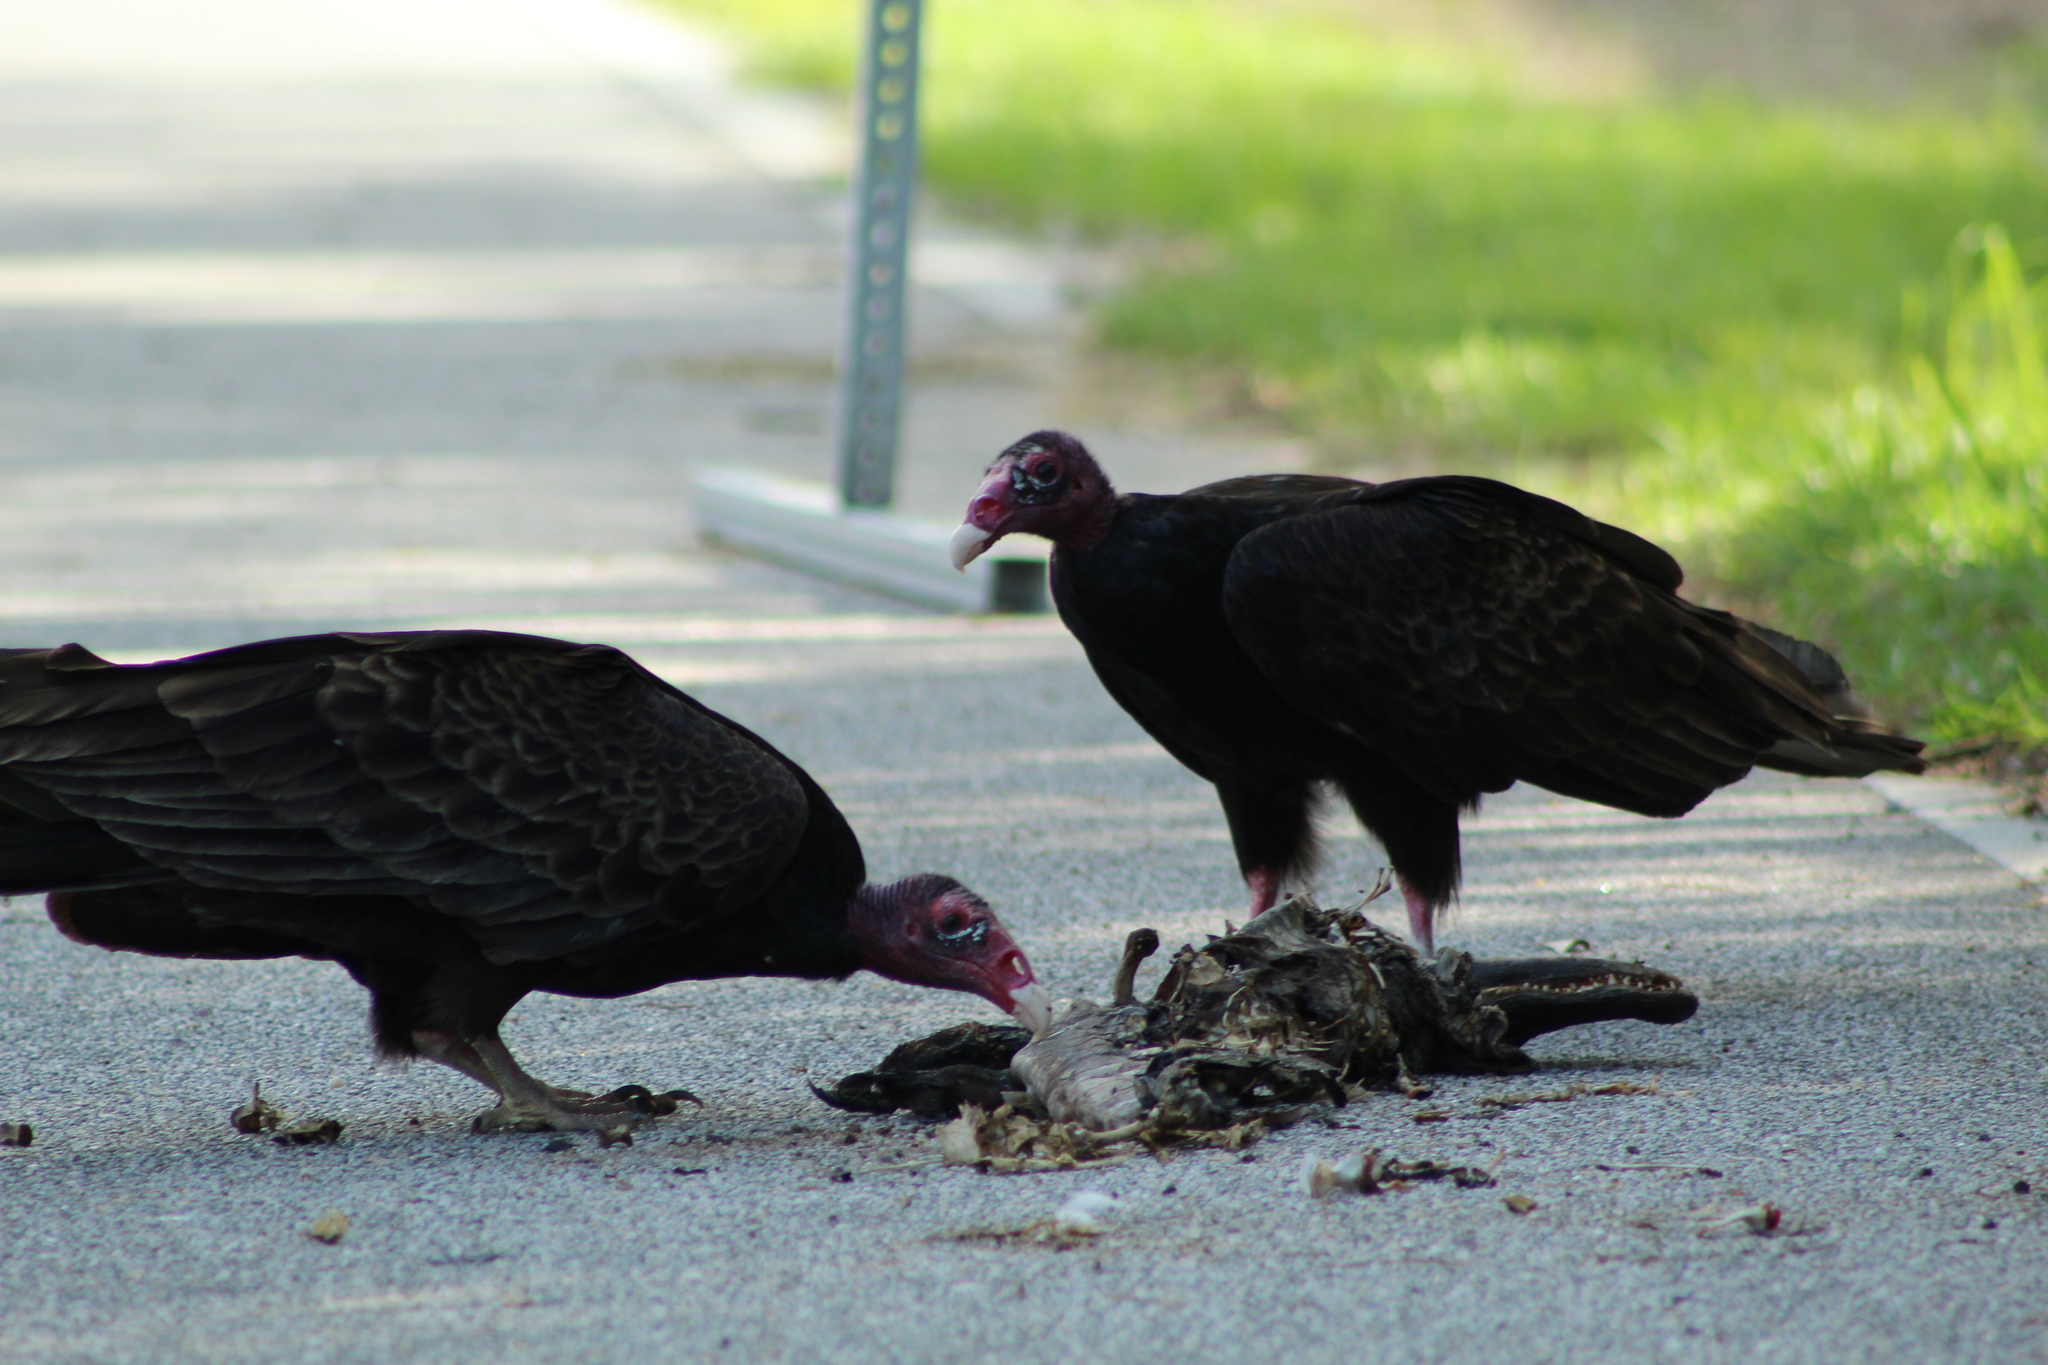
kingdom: Animalia
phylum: Chordata
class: Aves
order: Accipitriformes
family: Cathartidae
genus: Cathartes
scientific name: Cathartes aura
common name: Turkey vulture
